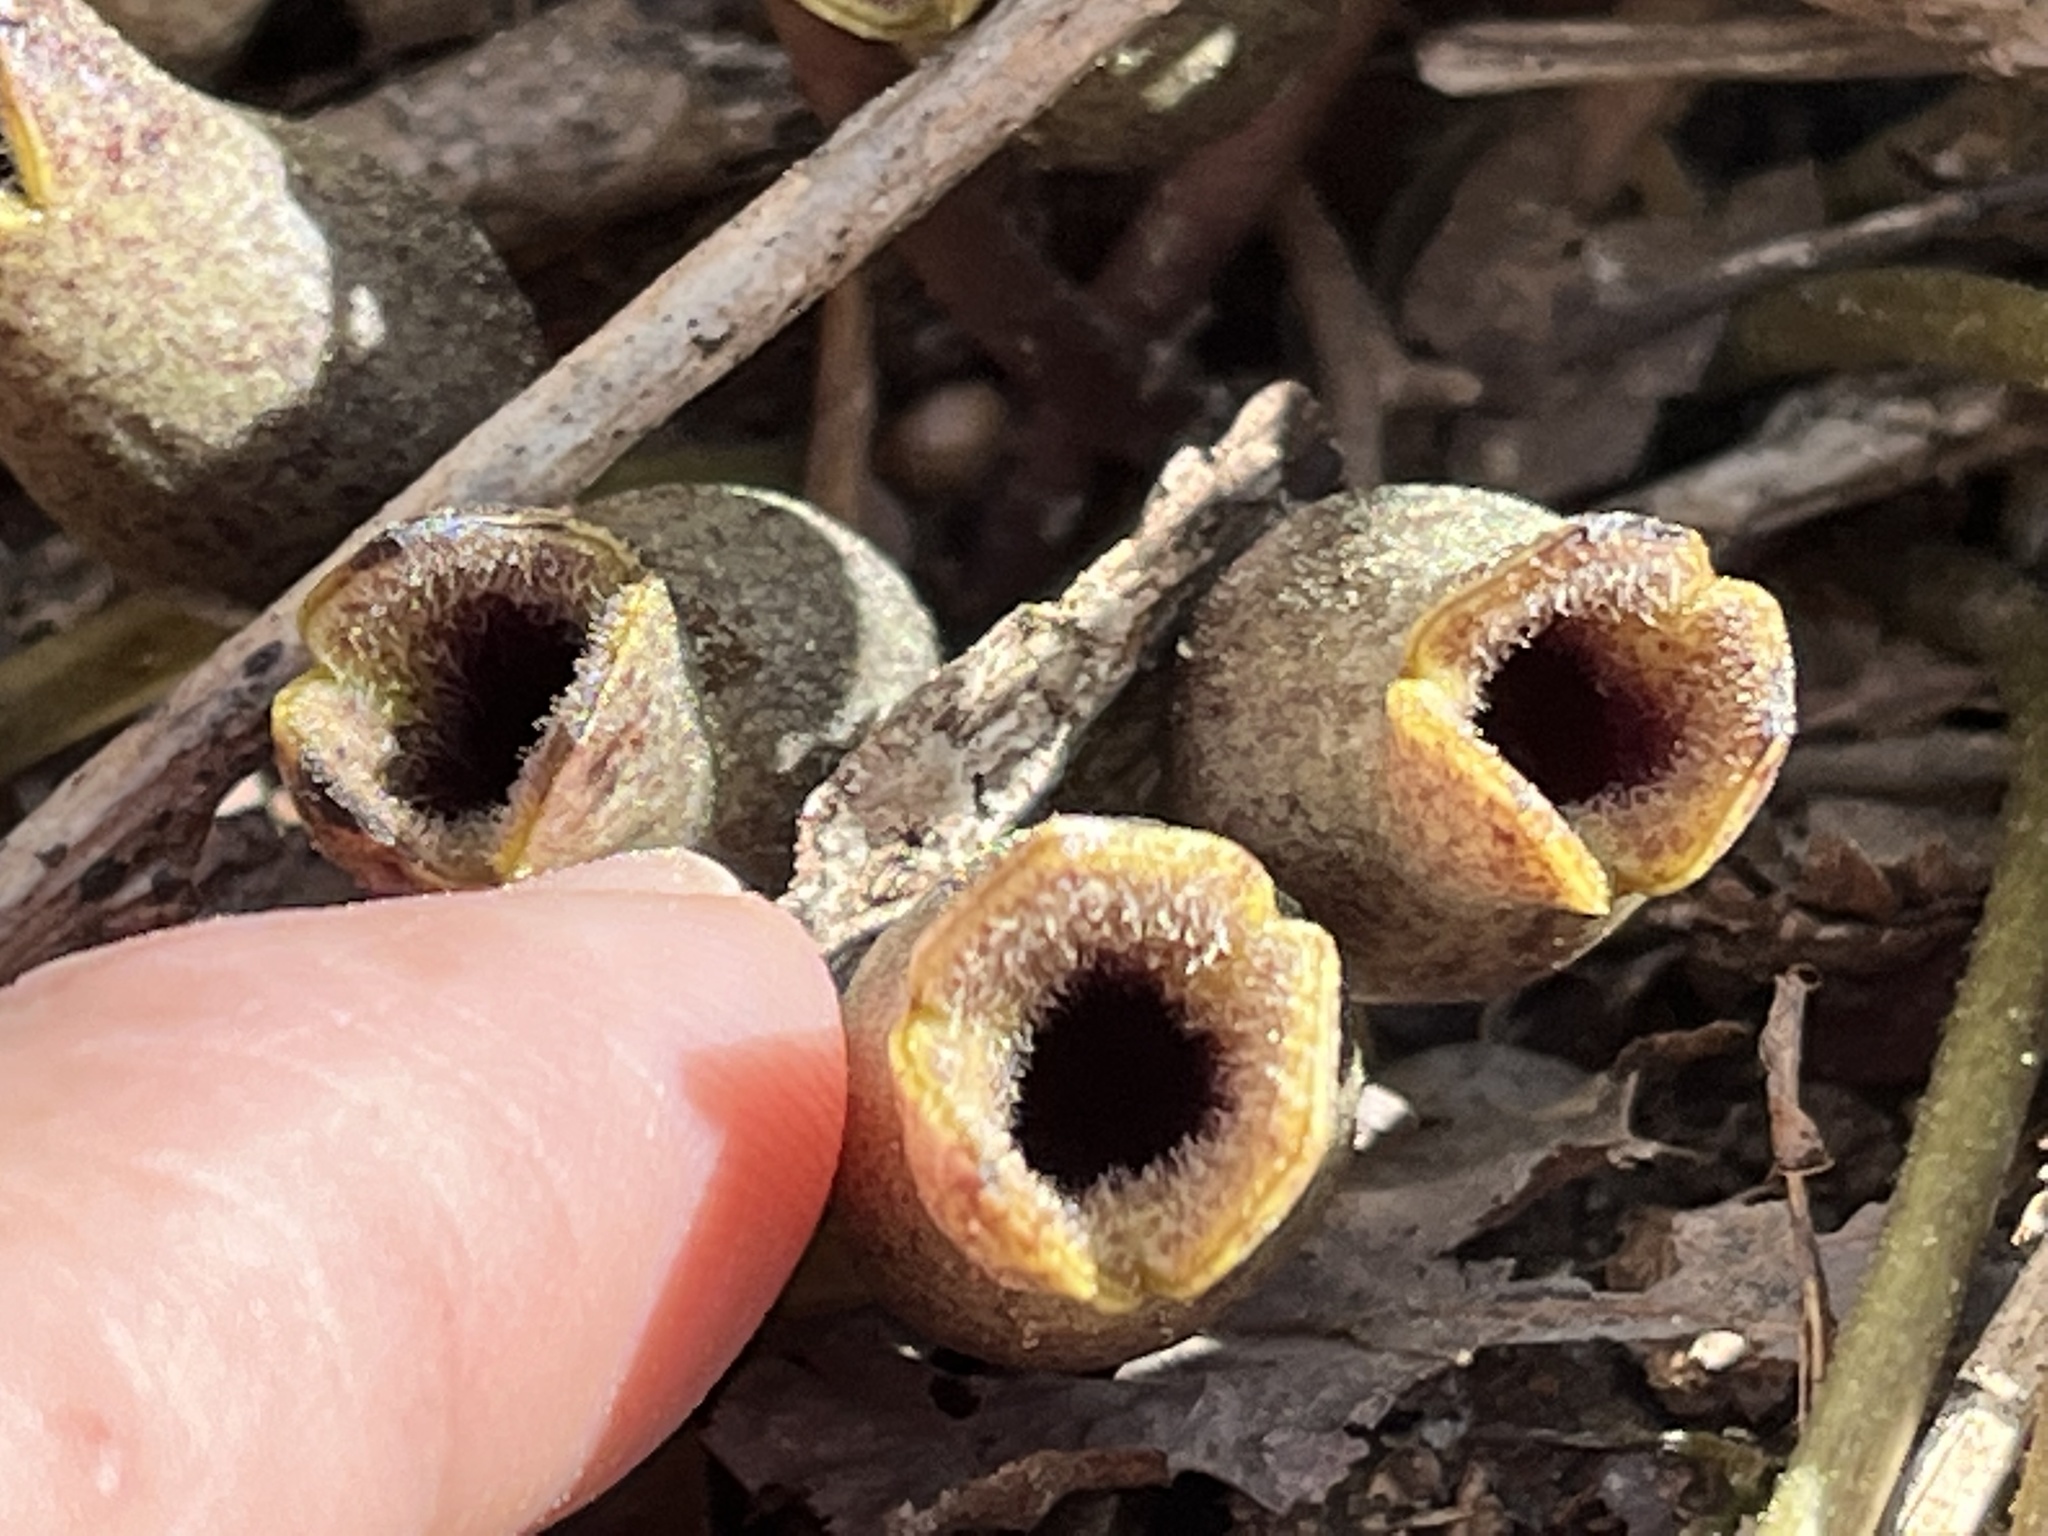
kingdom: Plantae
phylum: Tracheophyta
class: Magnoliopsida
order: Piperales
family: Aristolochiaceae
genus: Hexastylis
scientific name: Hexastylis arifolia
